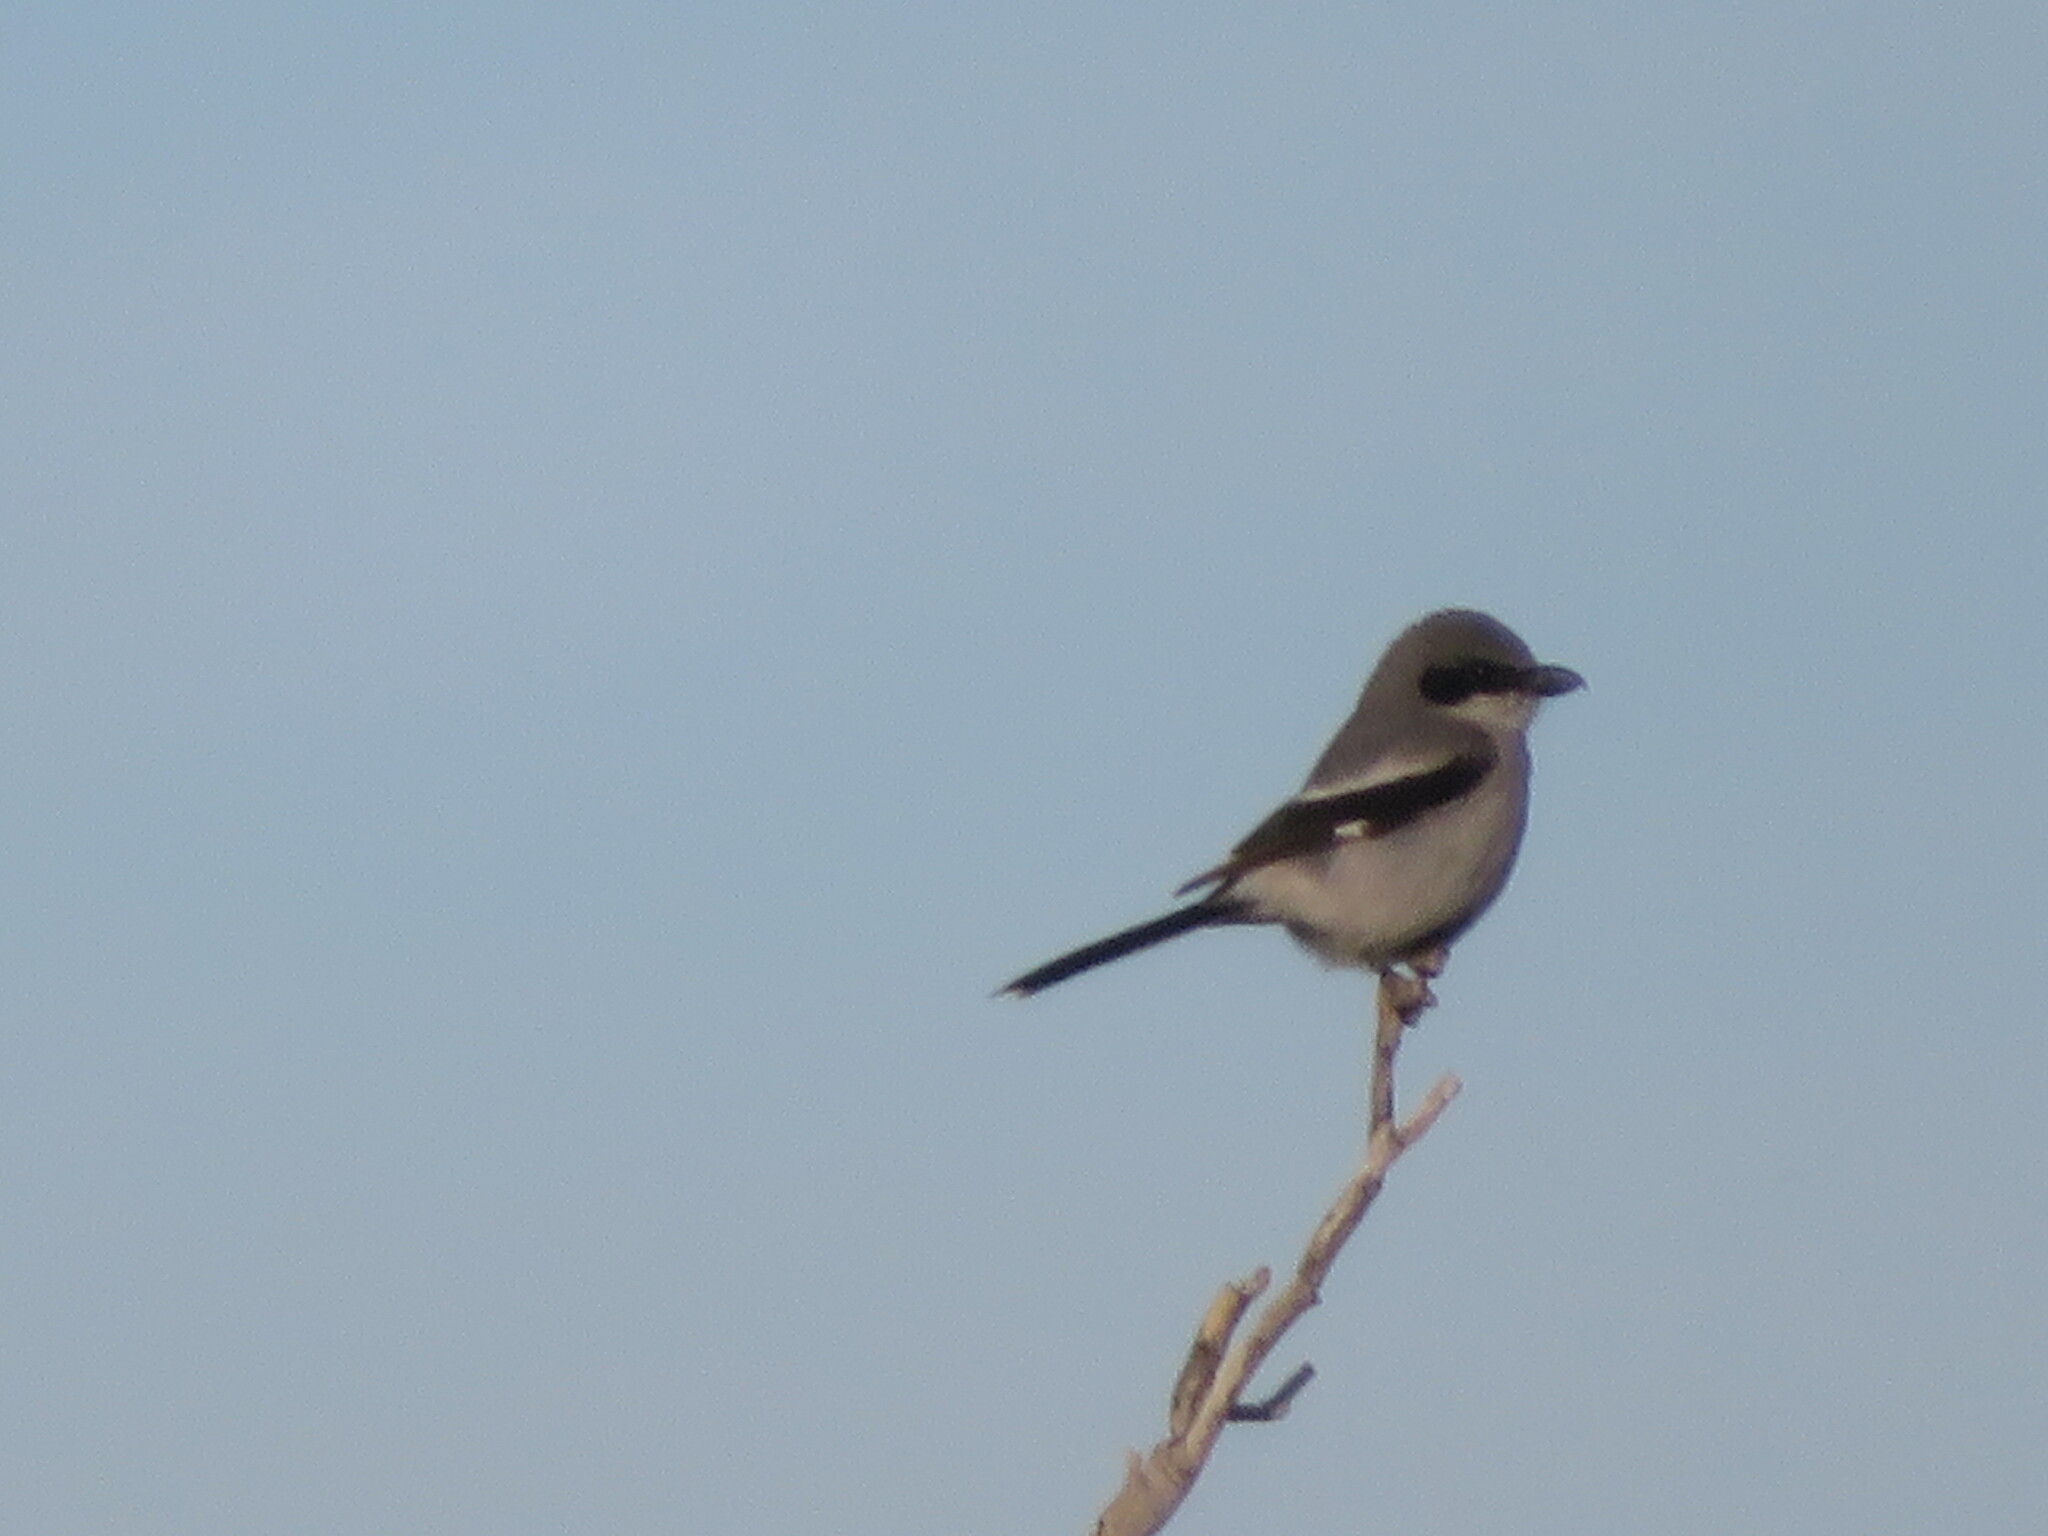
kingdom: Animalia
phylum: Chordata
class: Aves
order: Passeriformes
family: Laniidae
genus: Lanius
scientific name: Lanius ludovicianus
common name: Loggerhead shrike
